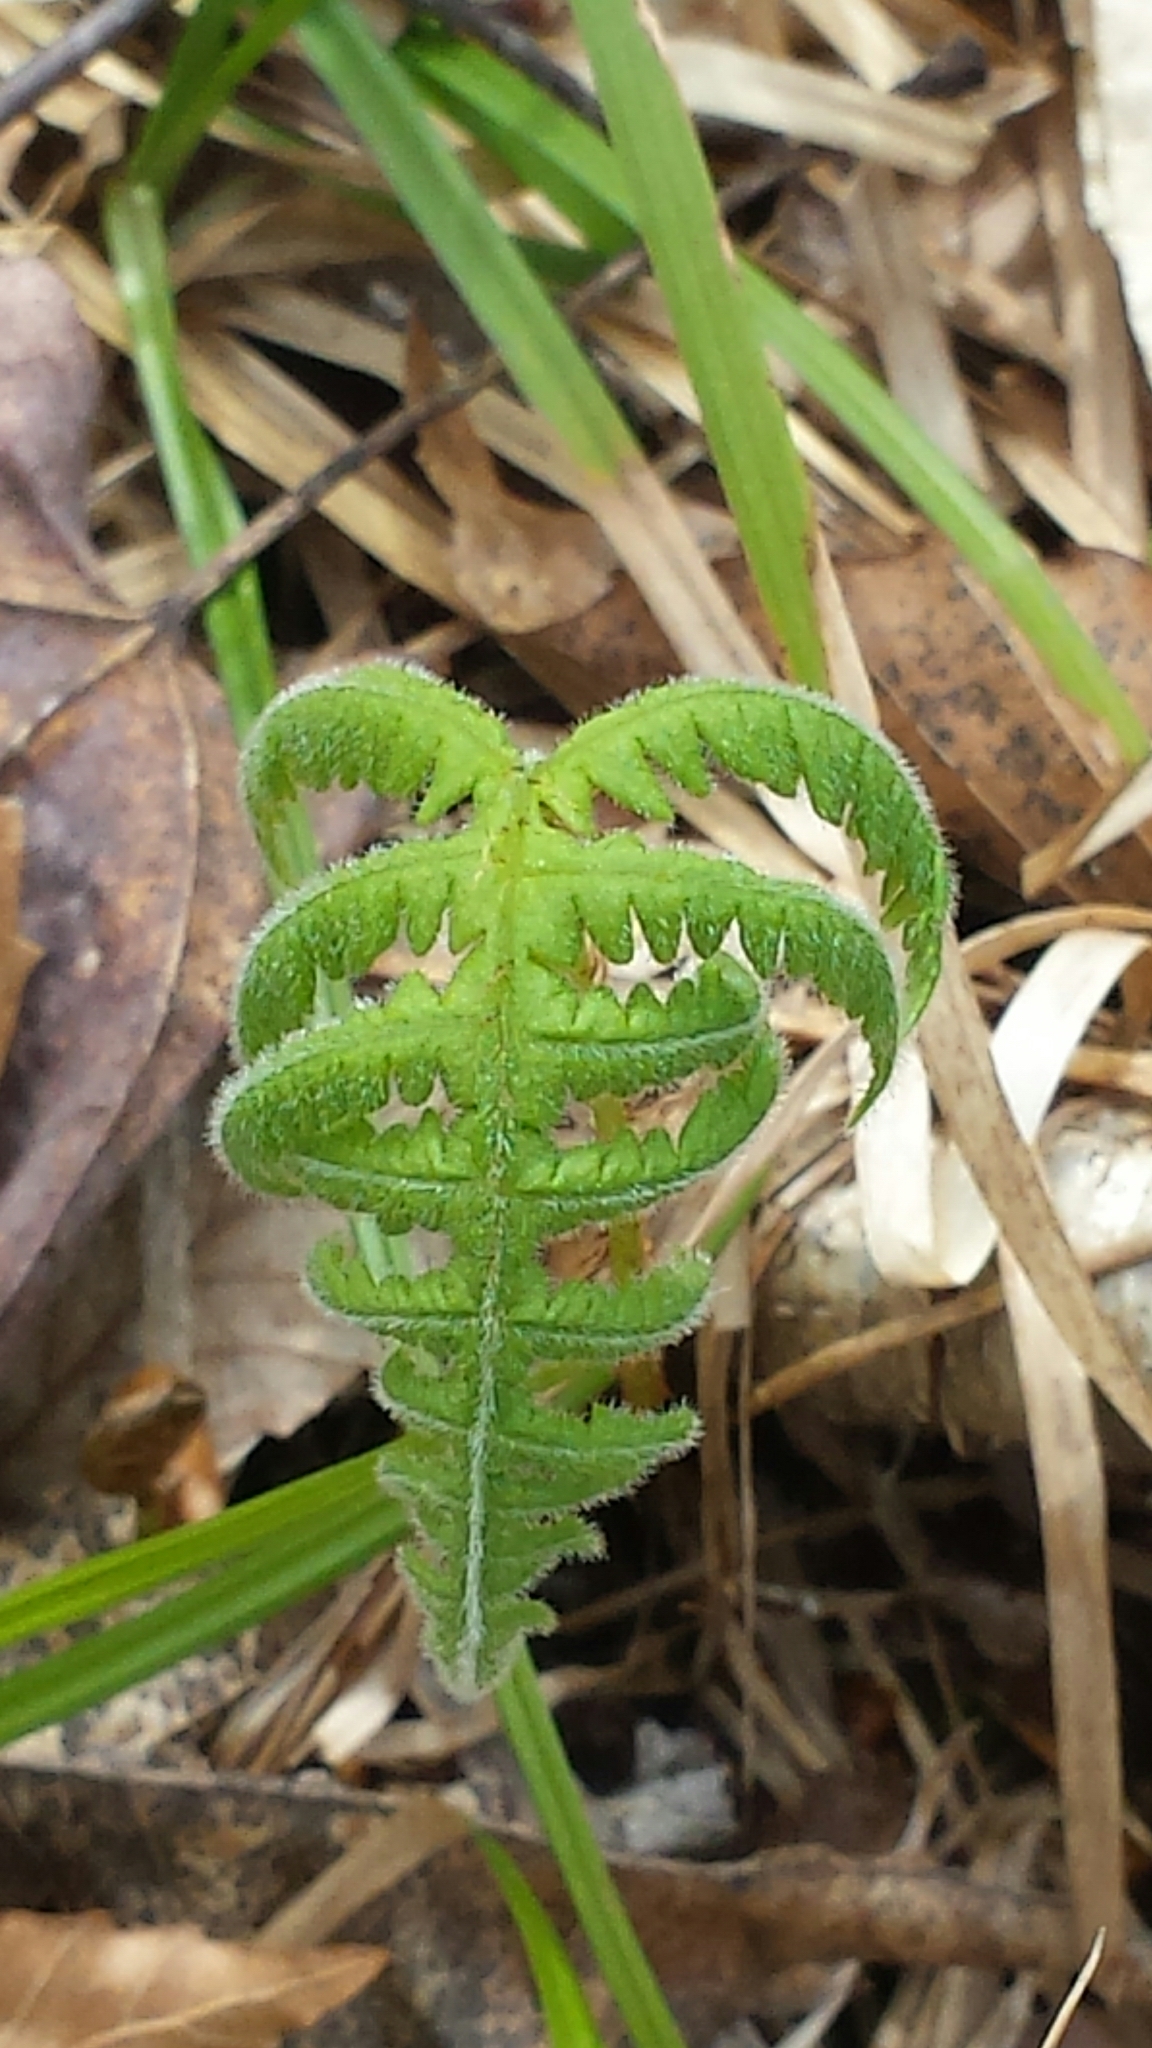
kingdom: Plantae
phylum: Tracheophyta
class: Polypodiopsida
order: Polypodiales
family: Thelypteridaceae
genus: Phegopteris
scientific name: Phegopteris connectilis
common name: Beech fern
